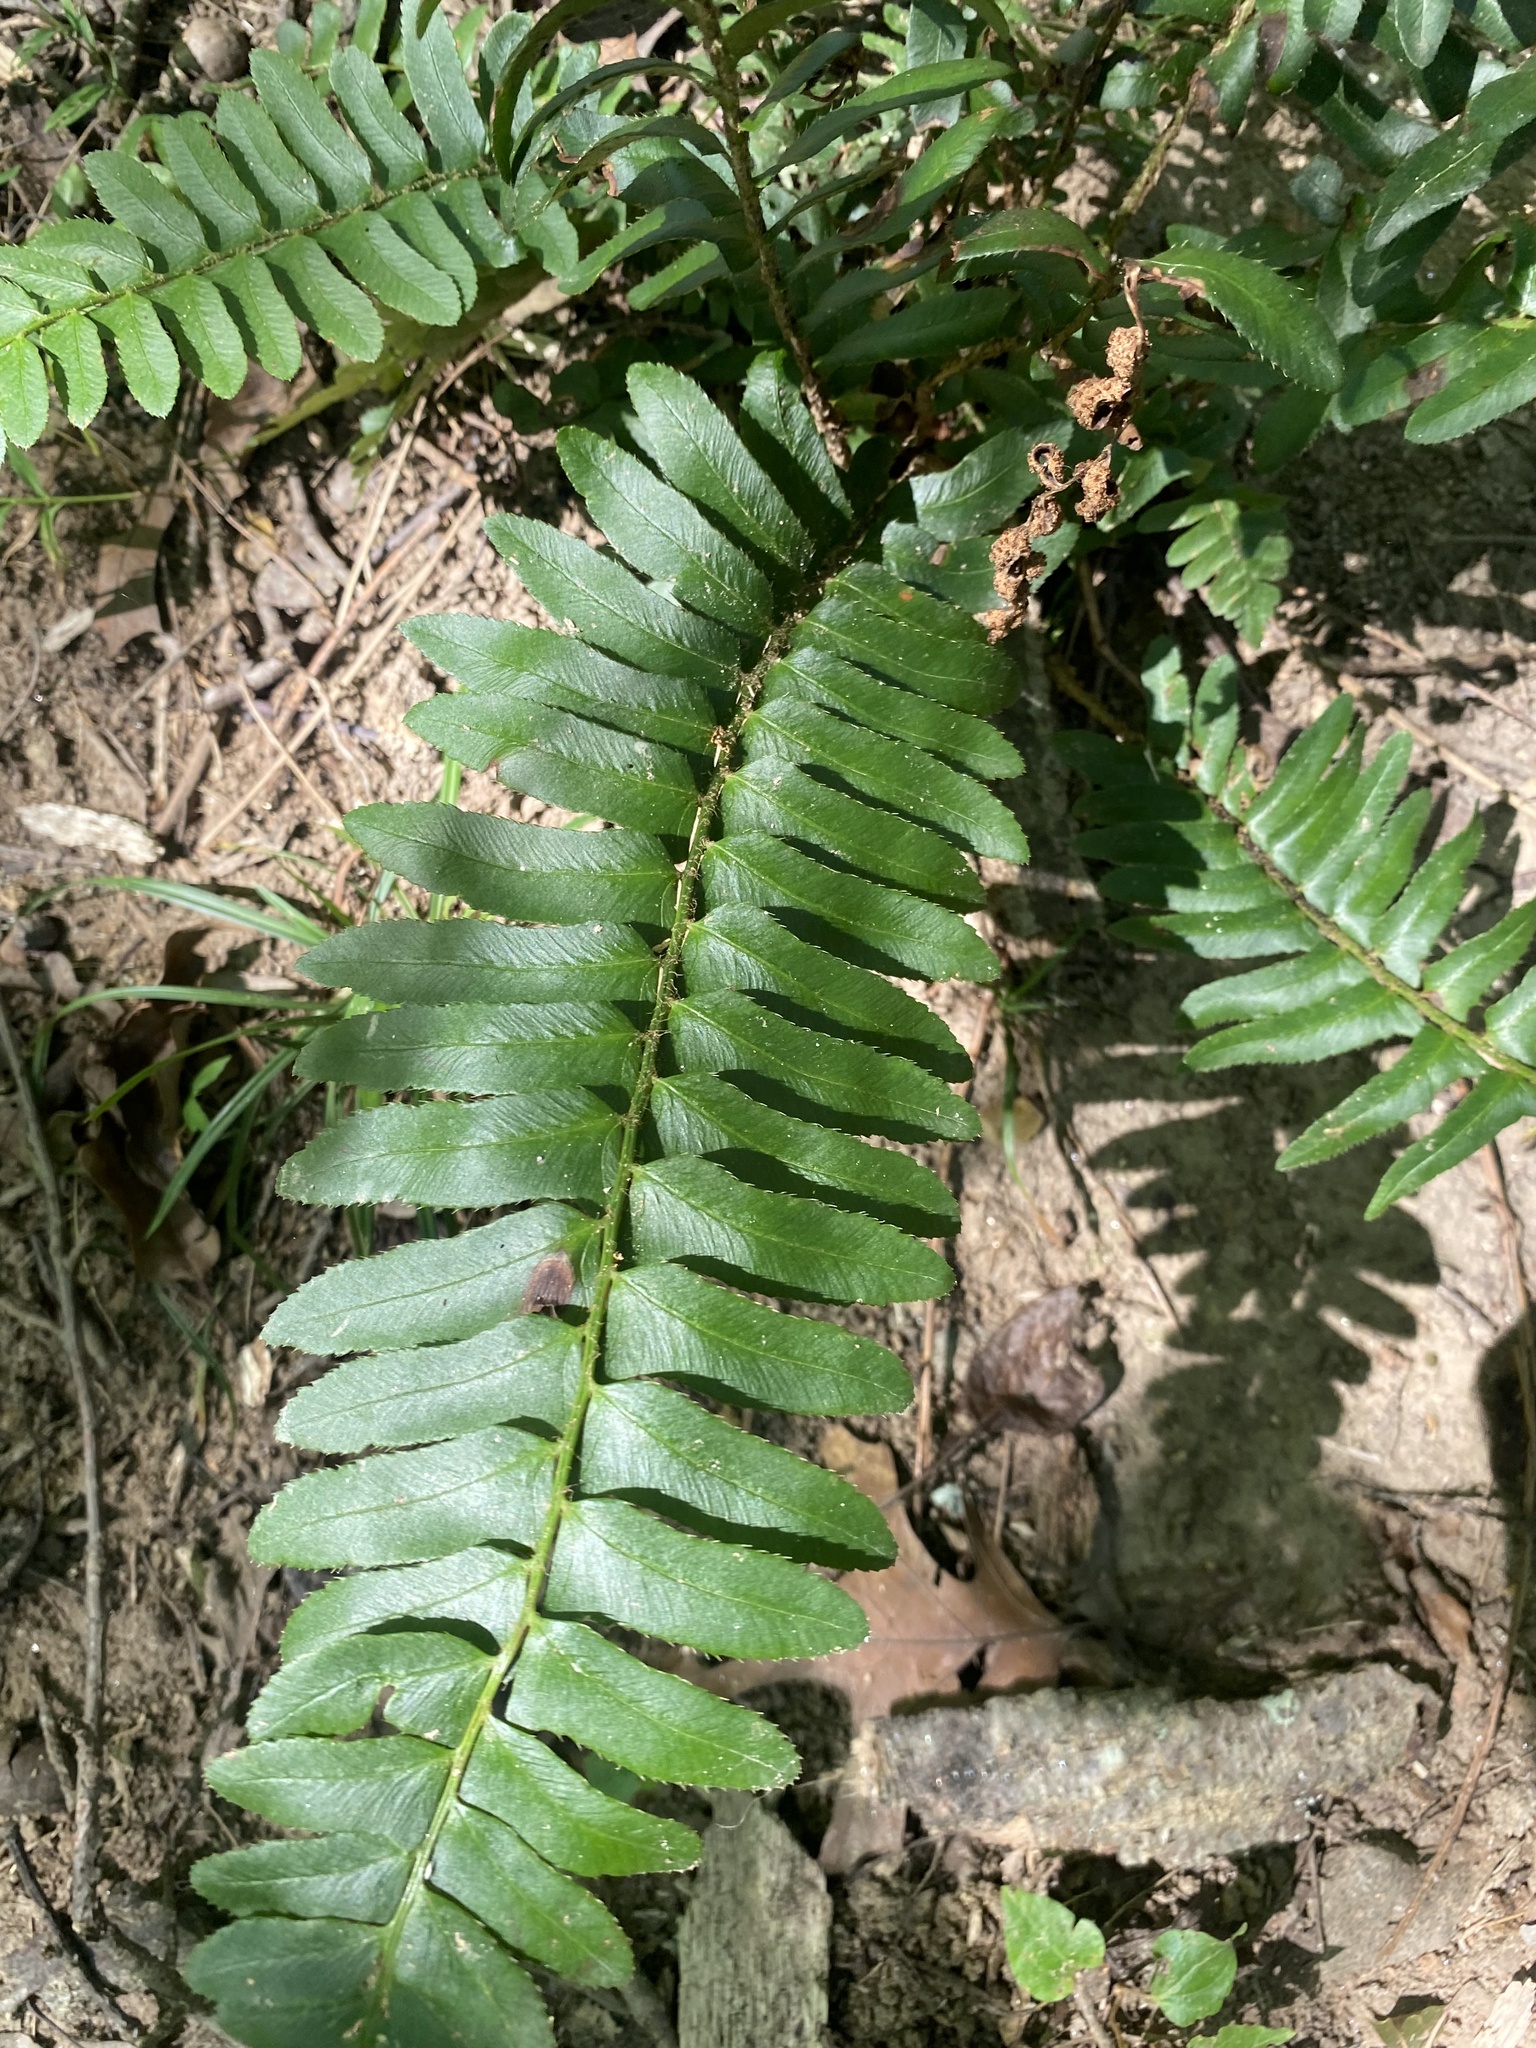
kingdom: Plantae
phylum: Tracheophyta
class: Polypodiopsida
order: Polypodiales
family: Dryopteridaceae
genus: Polystichum
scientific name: Polystichum acrostichoides
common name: Christmas fern
